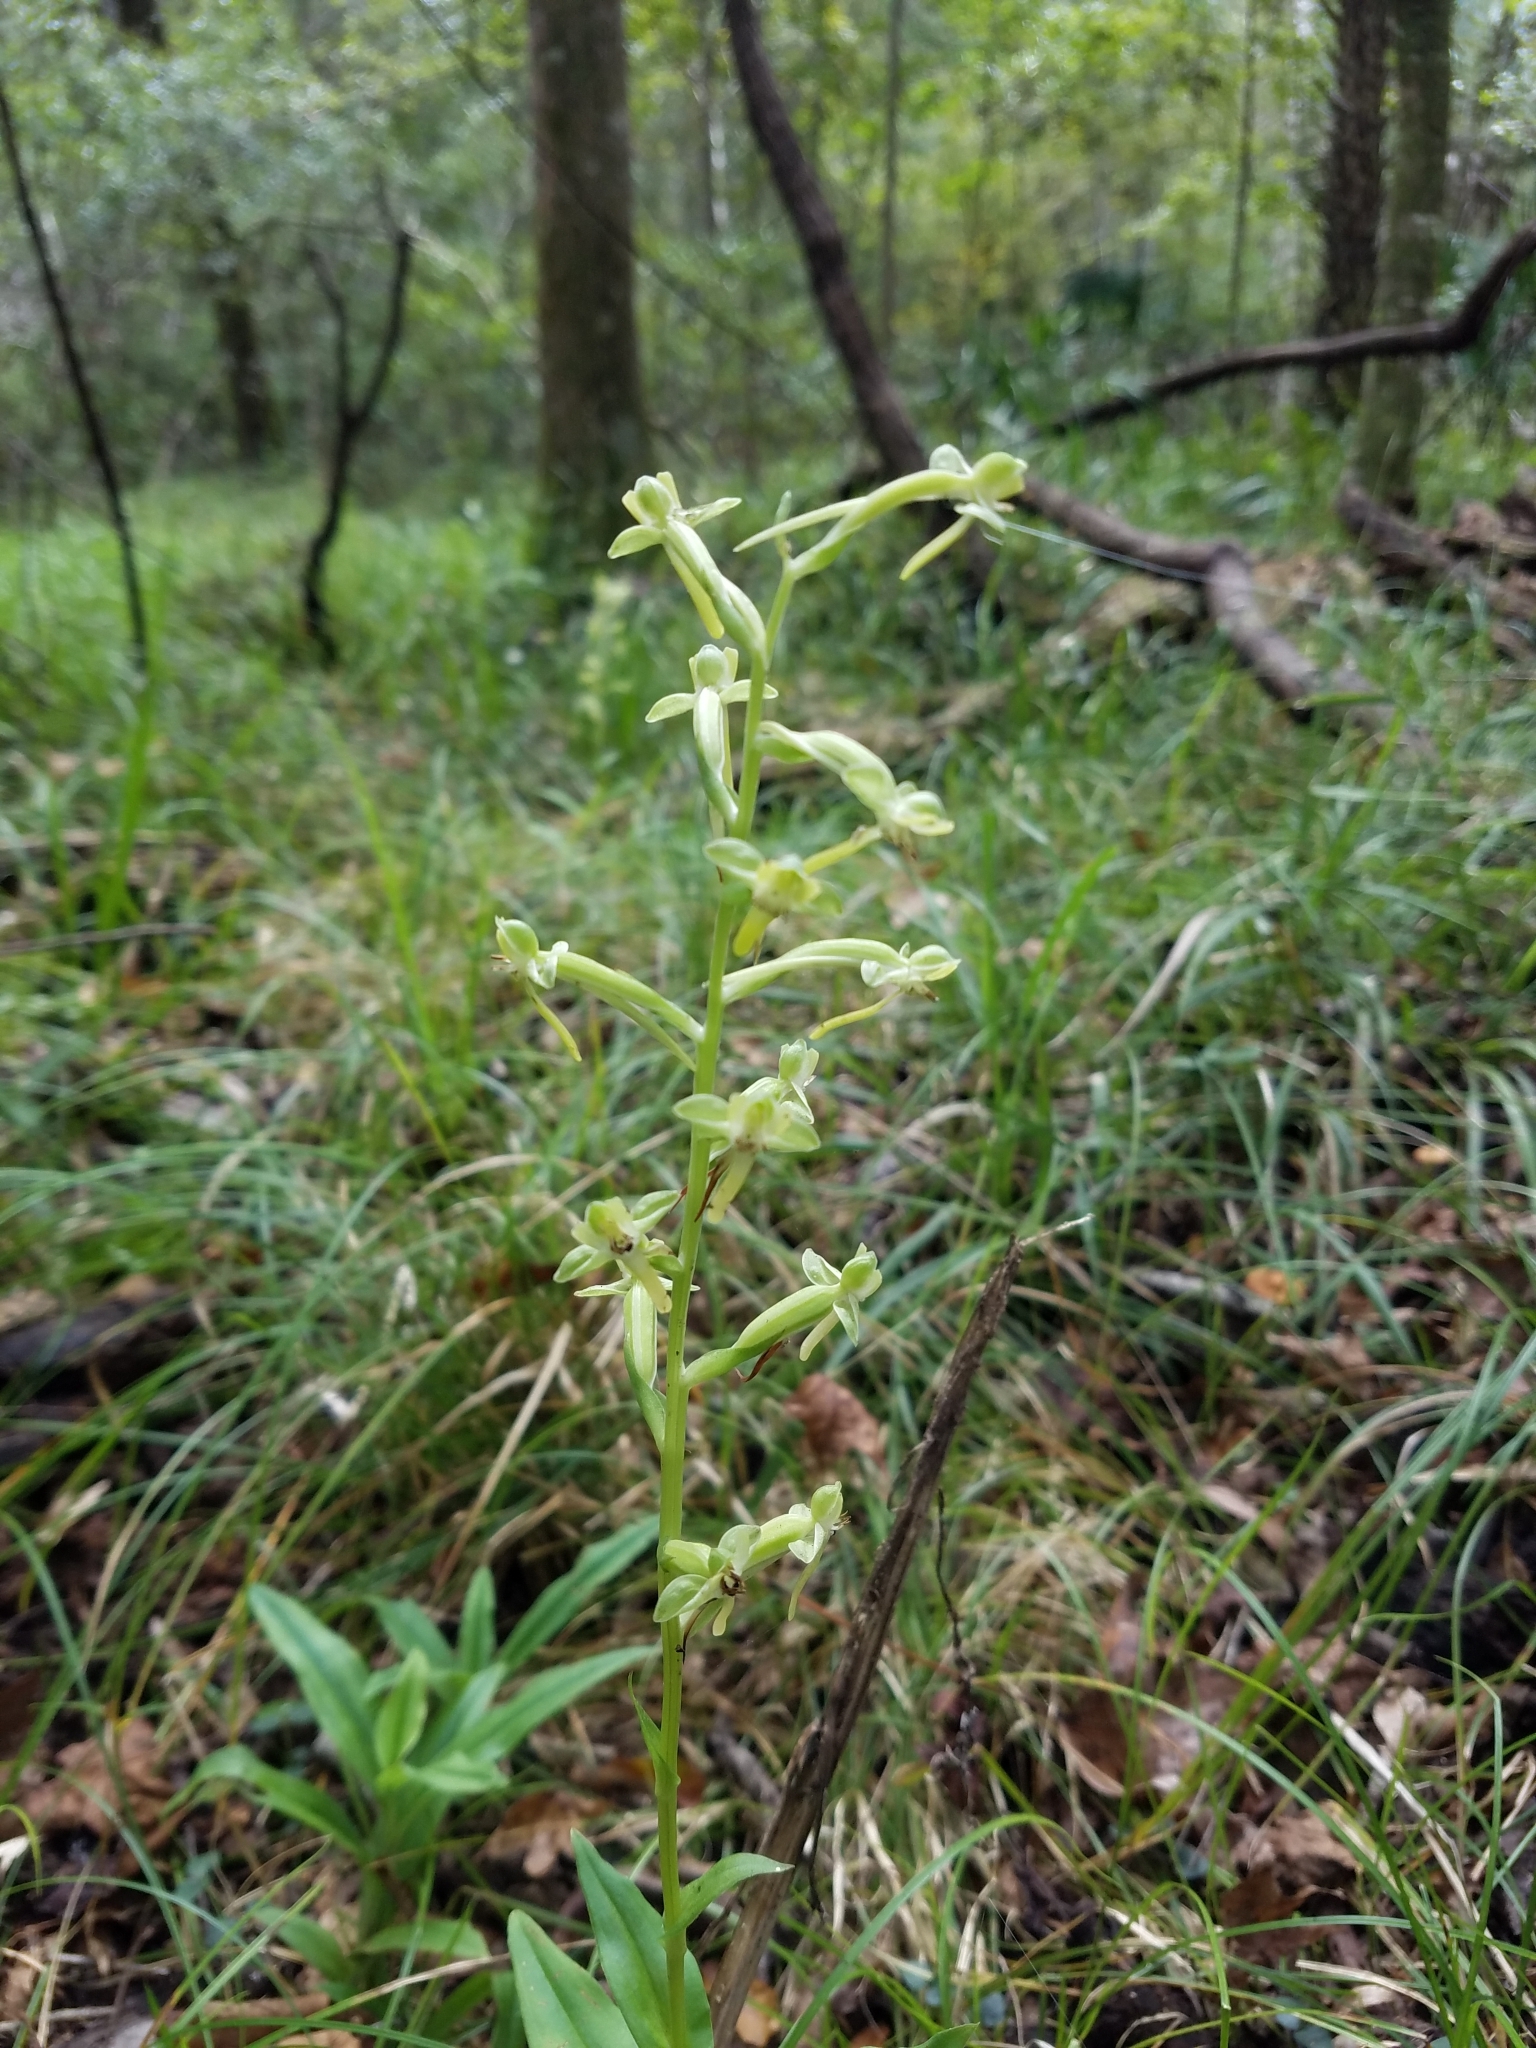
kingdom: Plantae
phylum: Tracheophyta
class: Liliopsida
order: Asparagales
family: Orchidaceae
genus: Habenaria
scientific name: Habenaria floribunda
